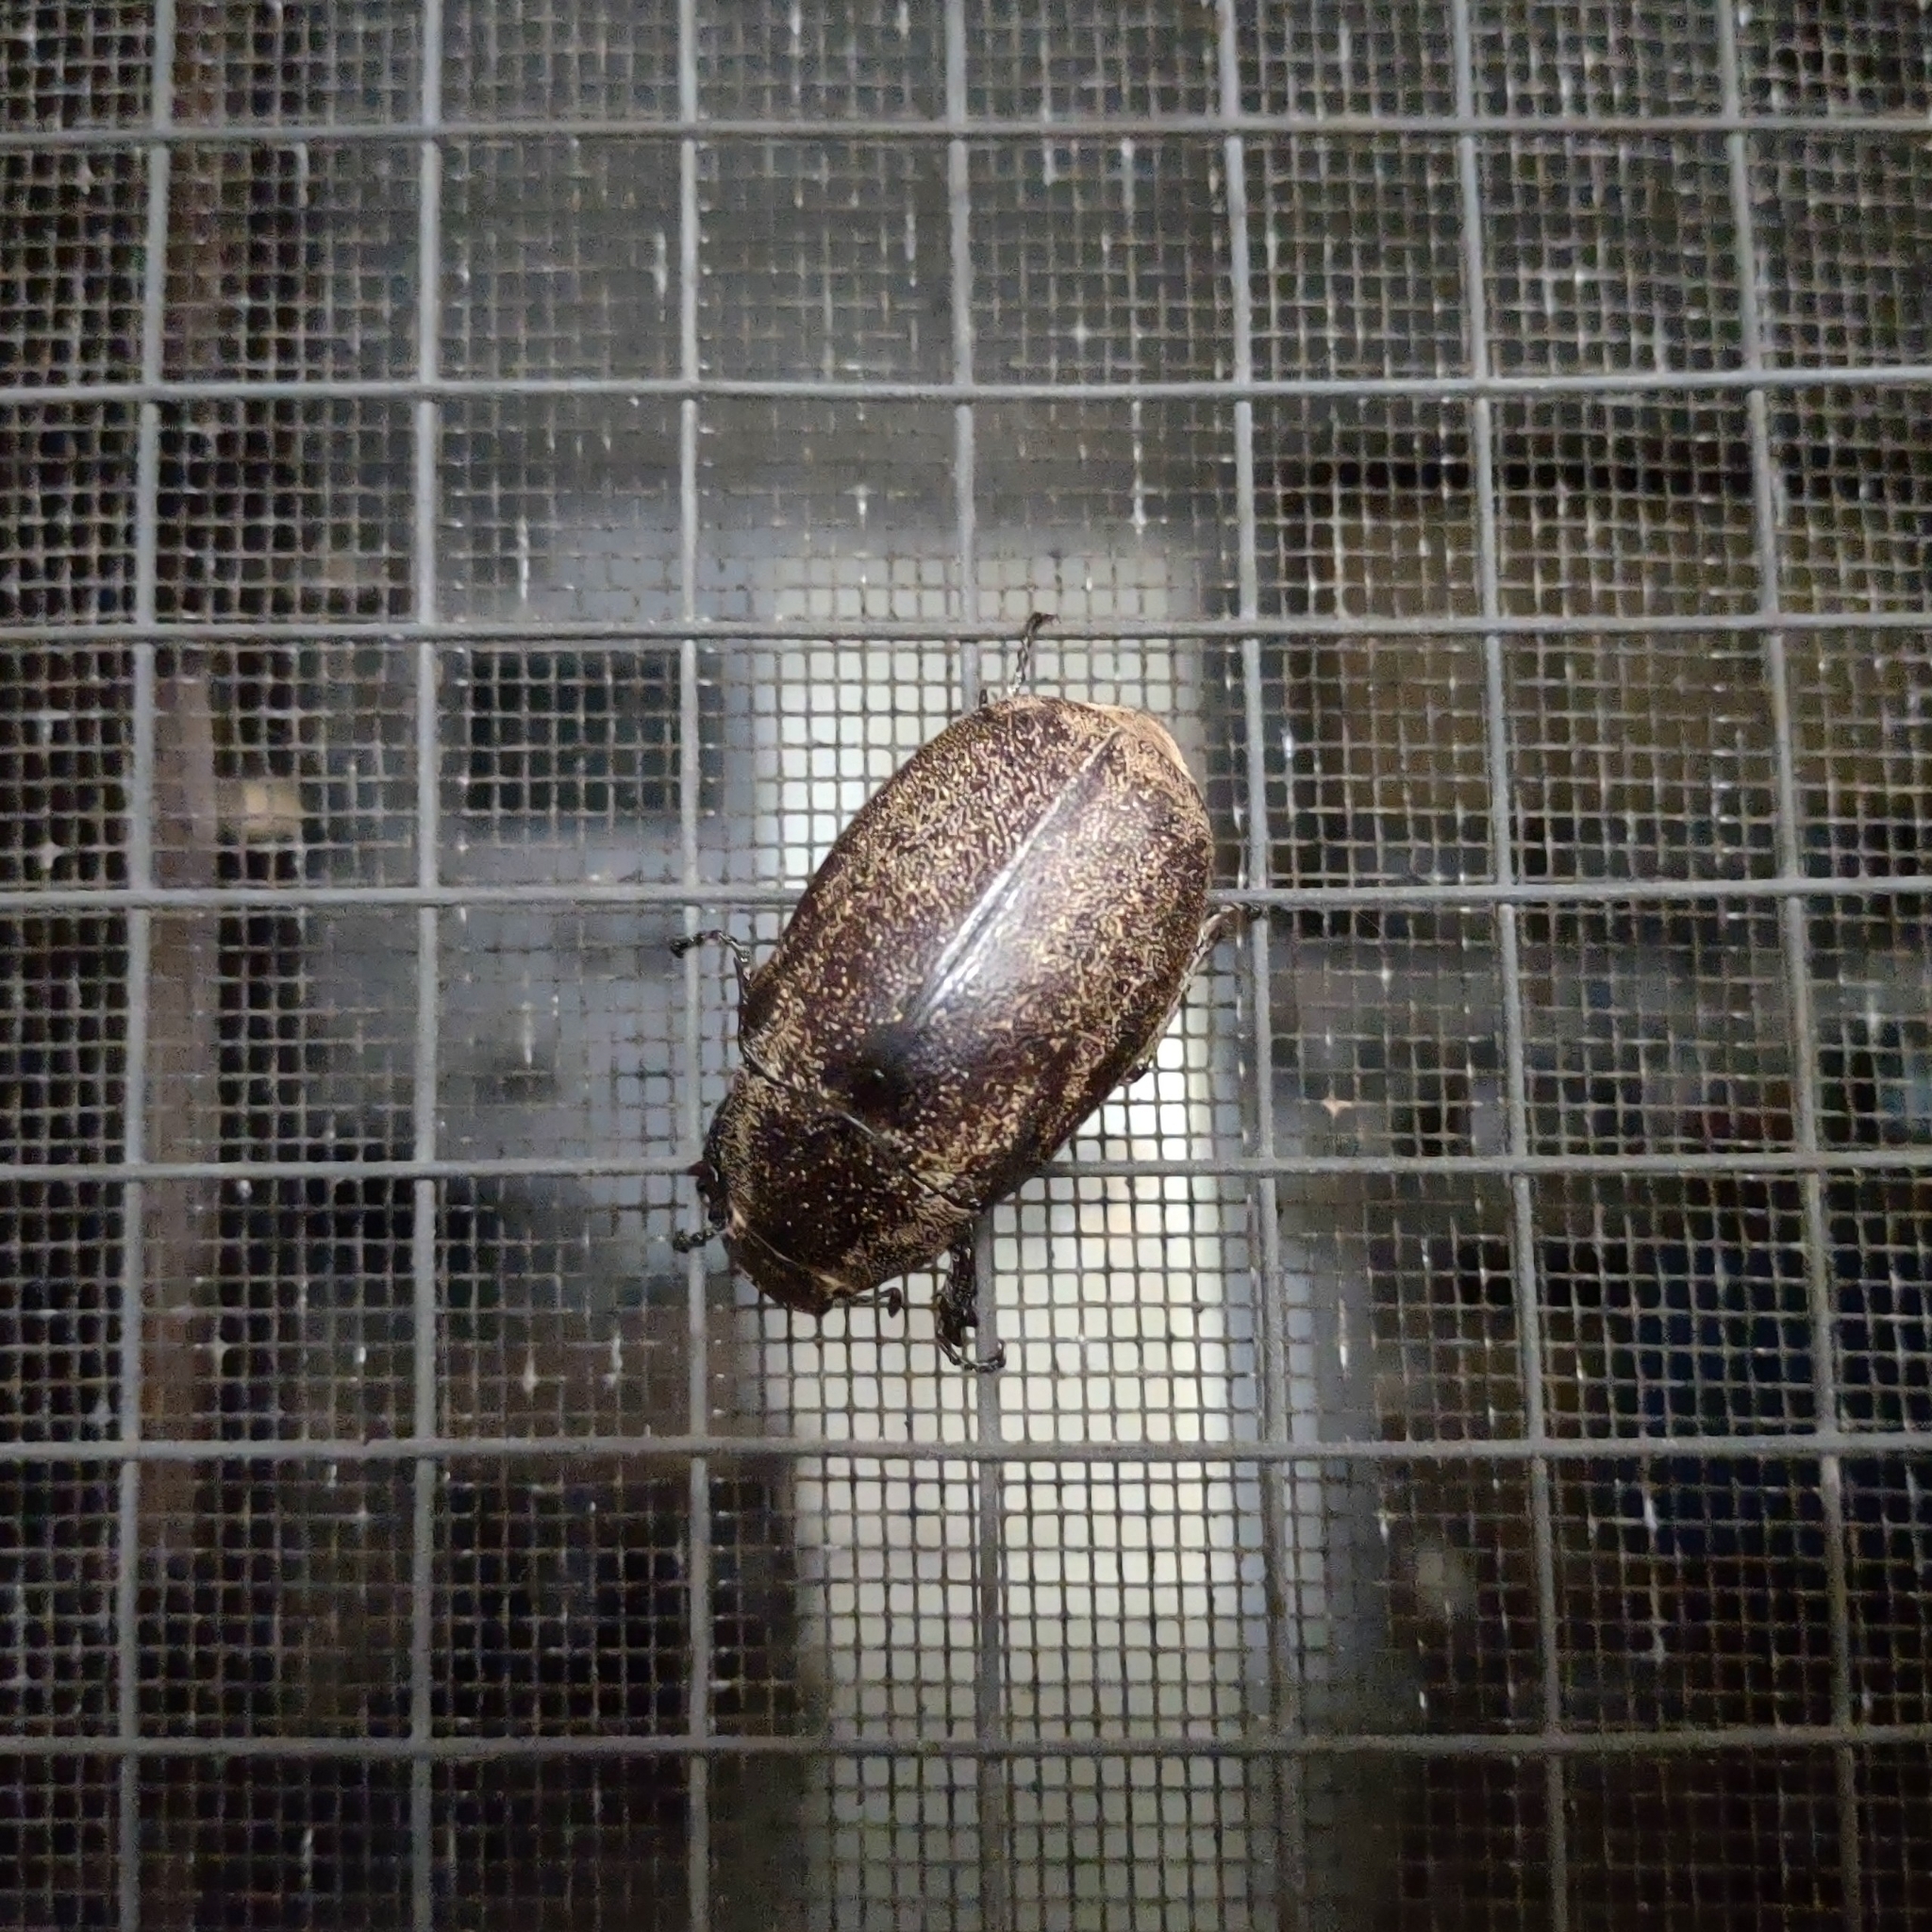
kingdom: Animalia
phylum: Arthropoda
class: Insecta
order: Coleoptera
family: Scarabaeidae
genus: Leucopholis
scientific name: Leucopholis irrorata
